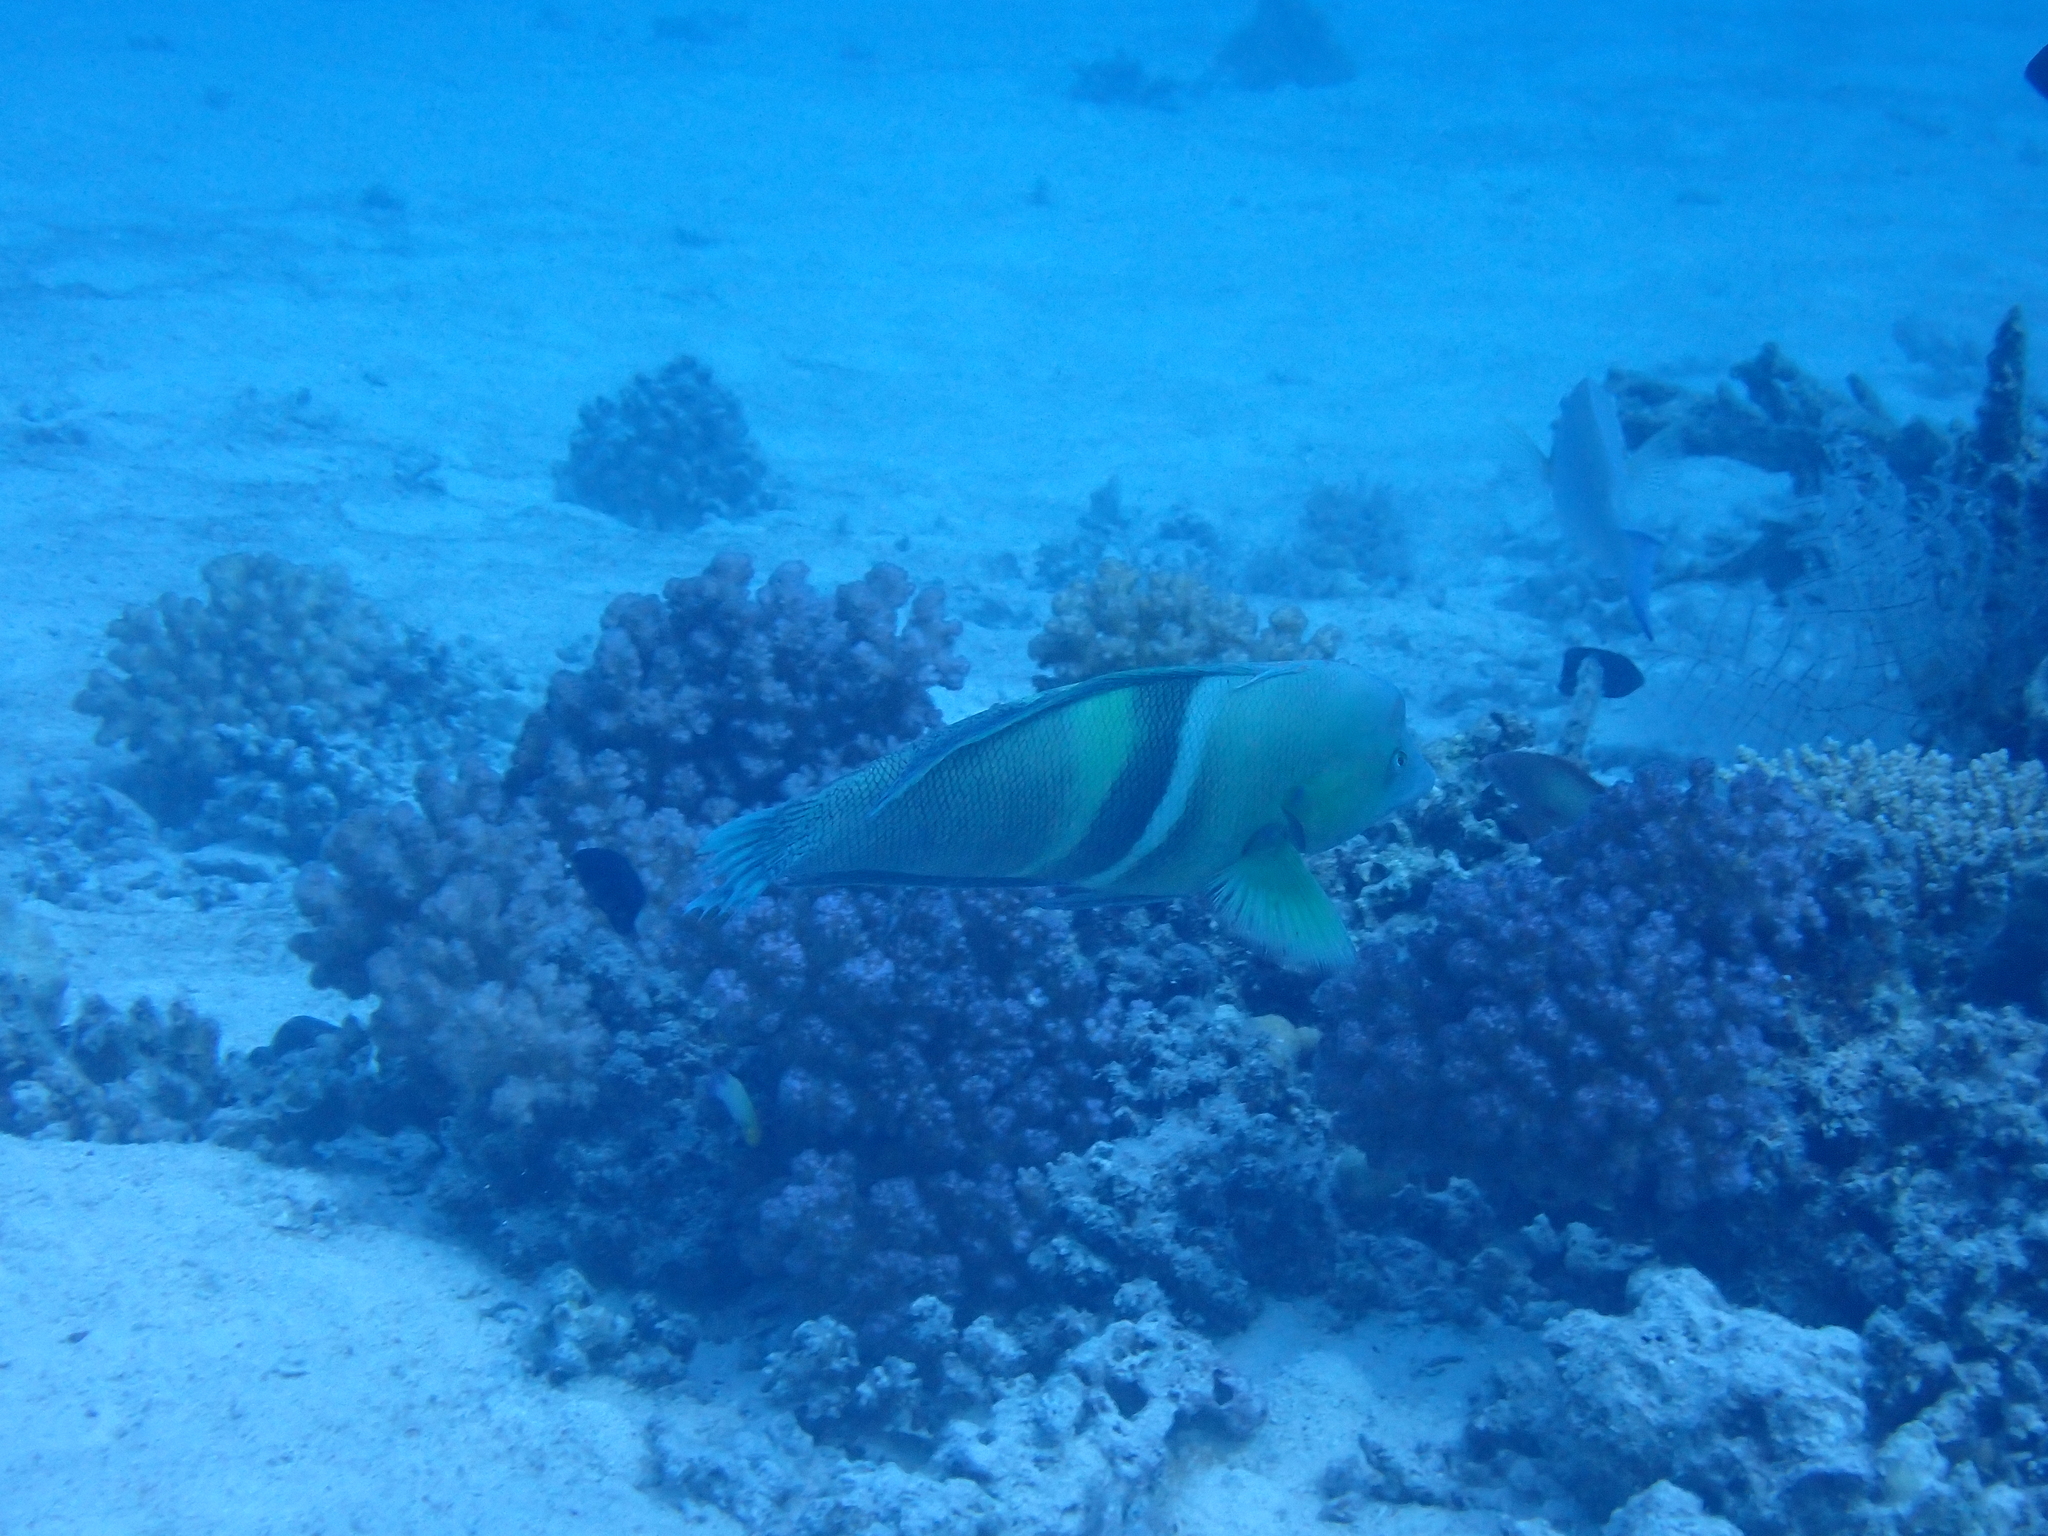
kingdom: Animalia
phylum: Chordata
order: Perciformes
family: Labridae
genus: Coris
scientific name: Coris aygula
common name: Clown coris
